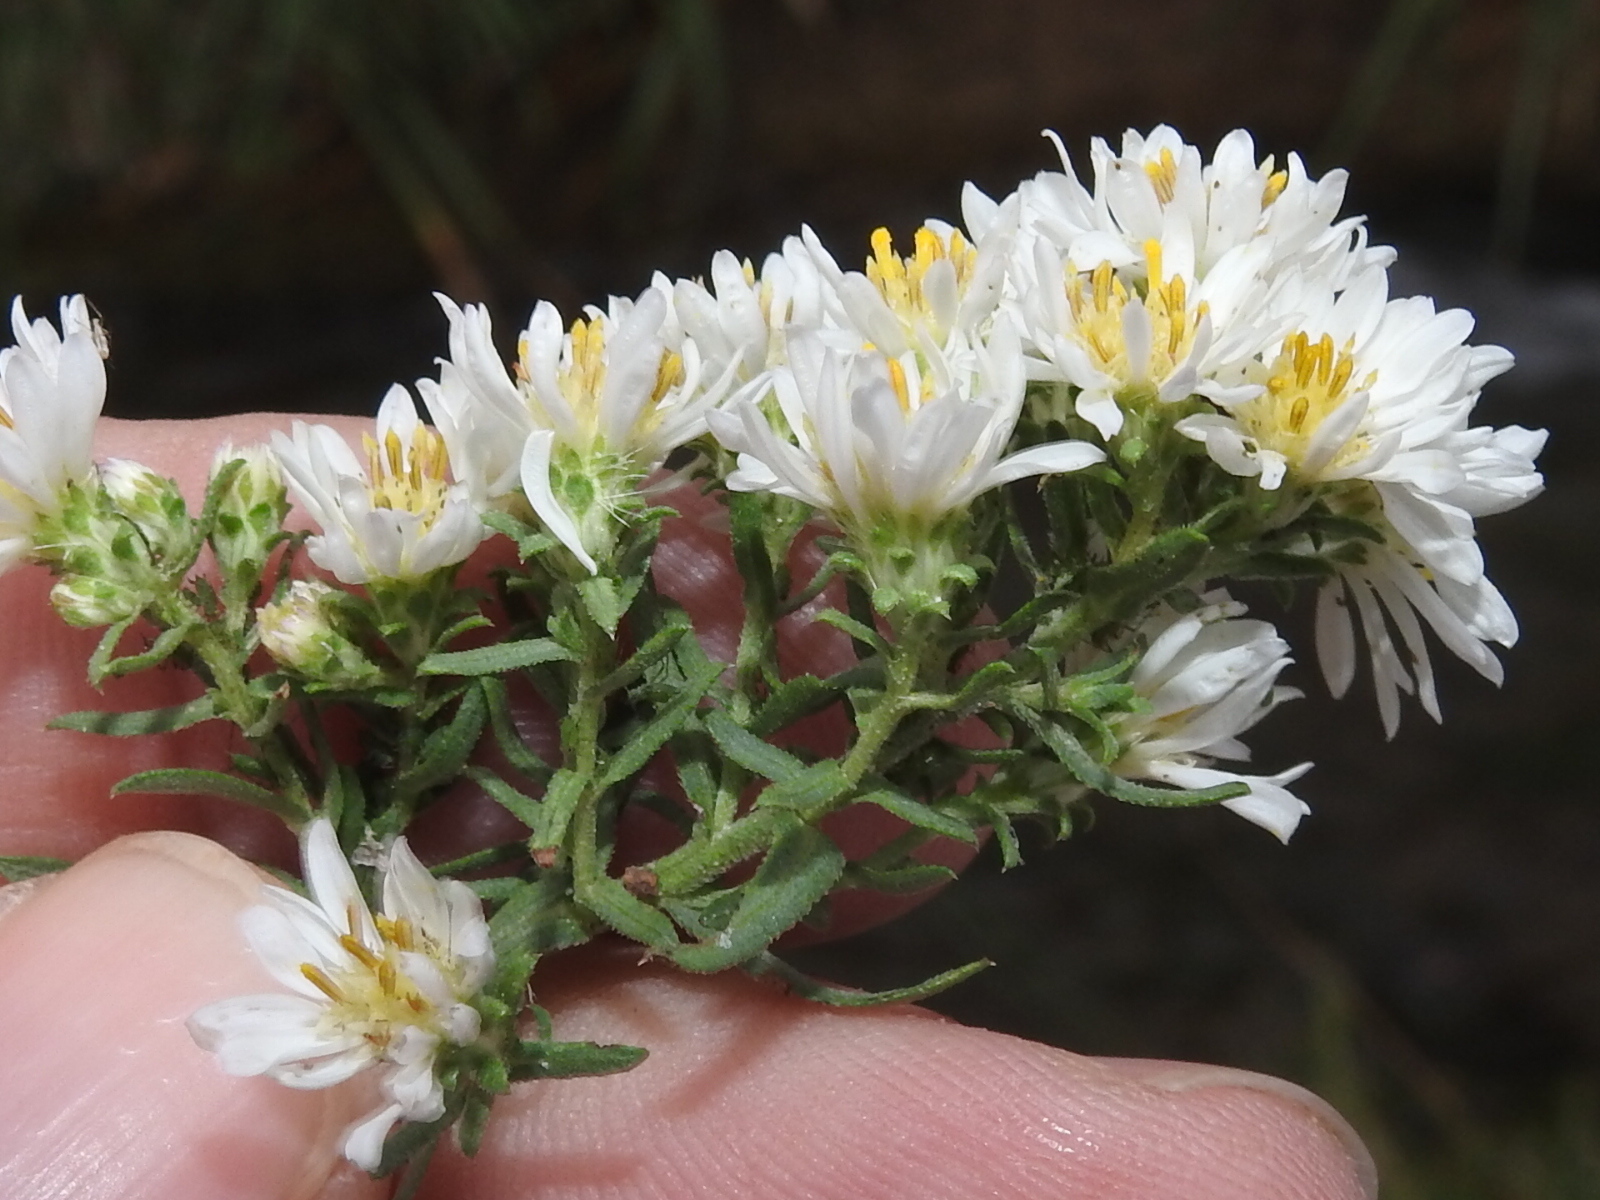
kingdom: Plantae
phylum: Tracheophyta
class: Magnoliopsida
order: Asterales
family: Asteraceae
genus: Symphyotrichum
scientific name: Symphyotrichum ericoides
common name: Heath aster
